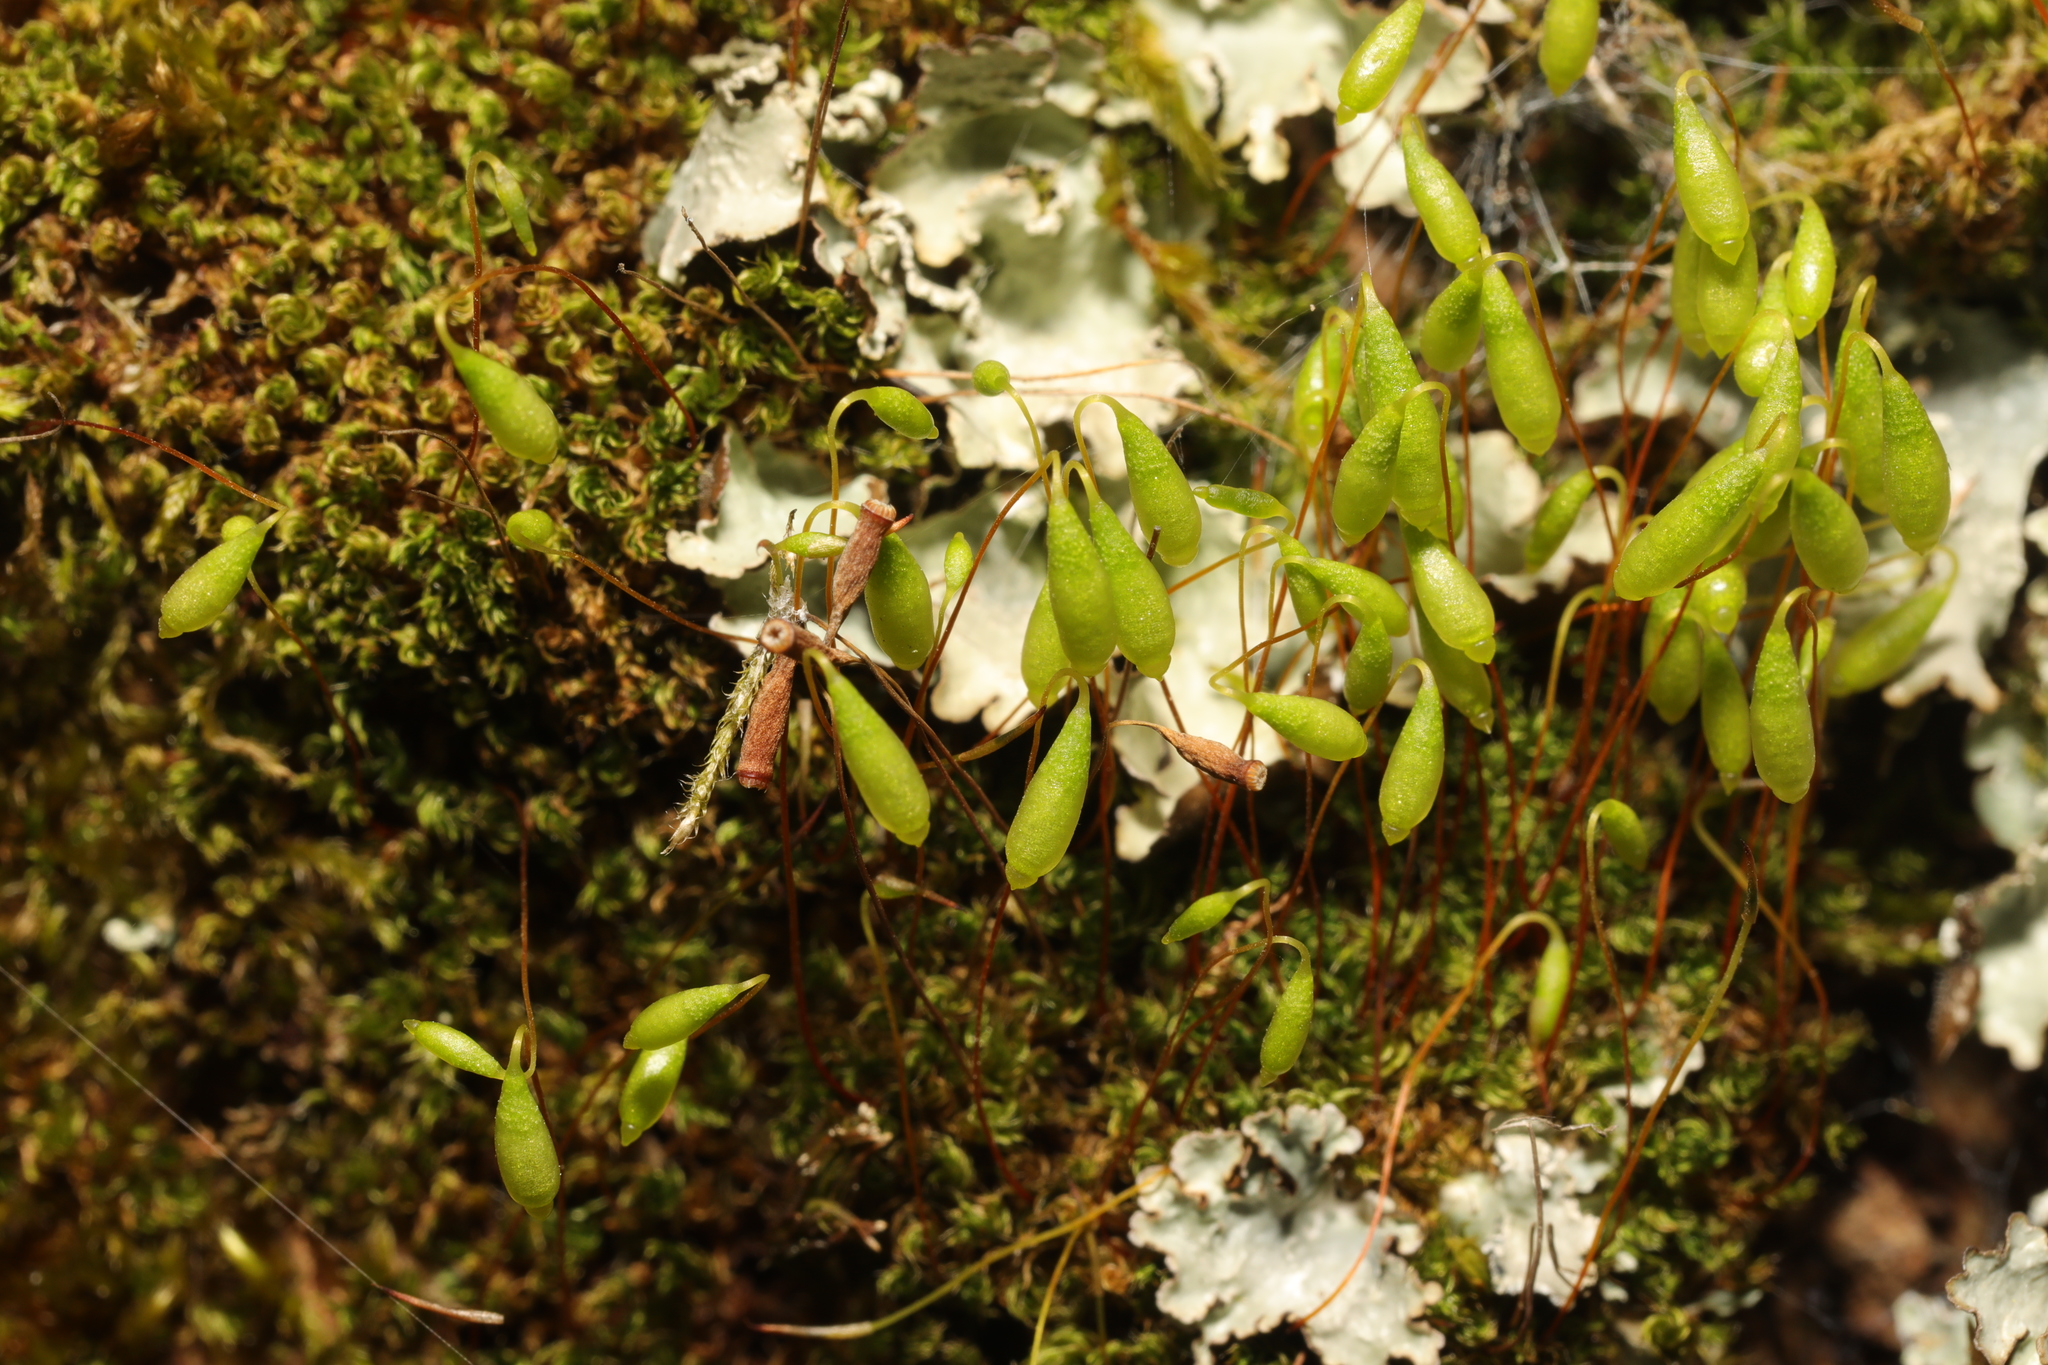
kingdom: Plantae
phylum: Bryophyta
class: Bryopsida
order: Bryales
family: Bryaceae
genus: Rosulabryum
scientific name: Rosulabryum capillare
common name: Capillary thread-moss
